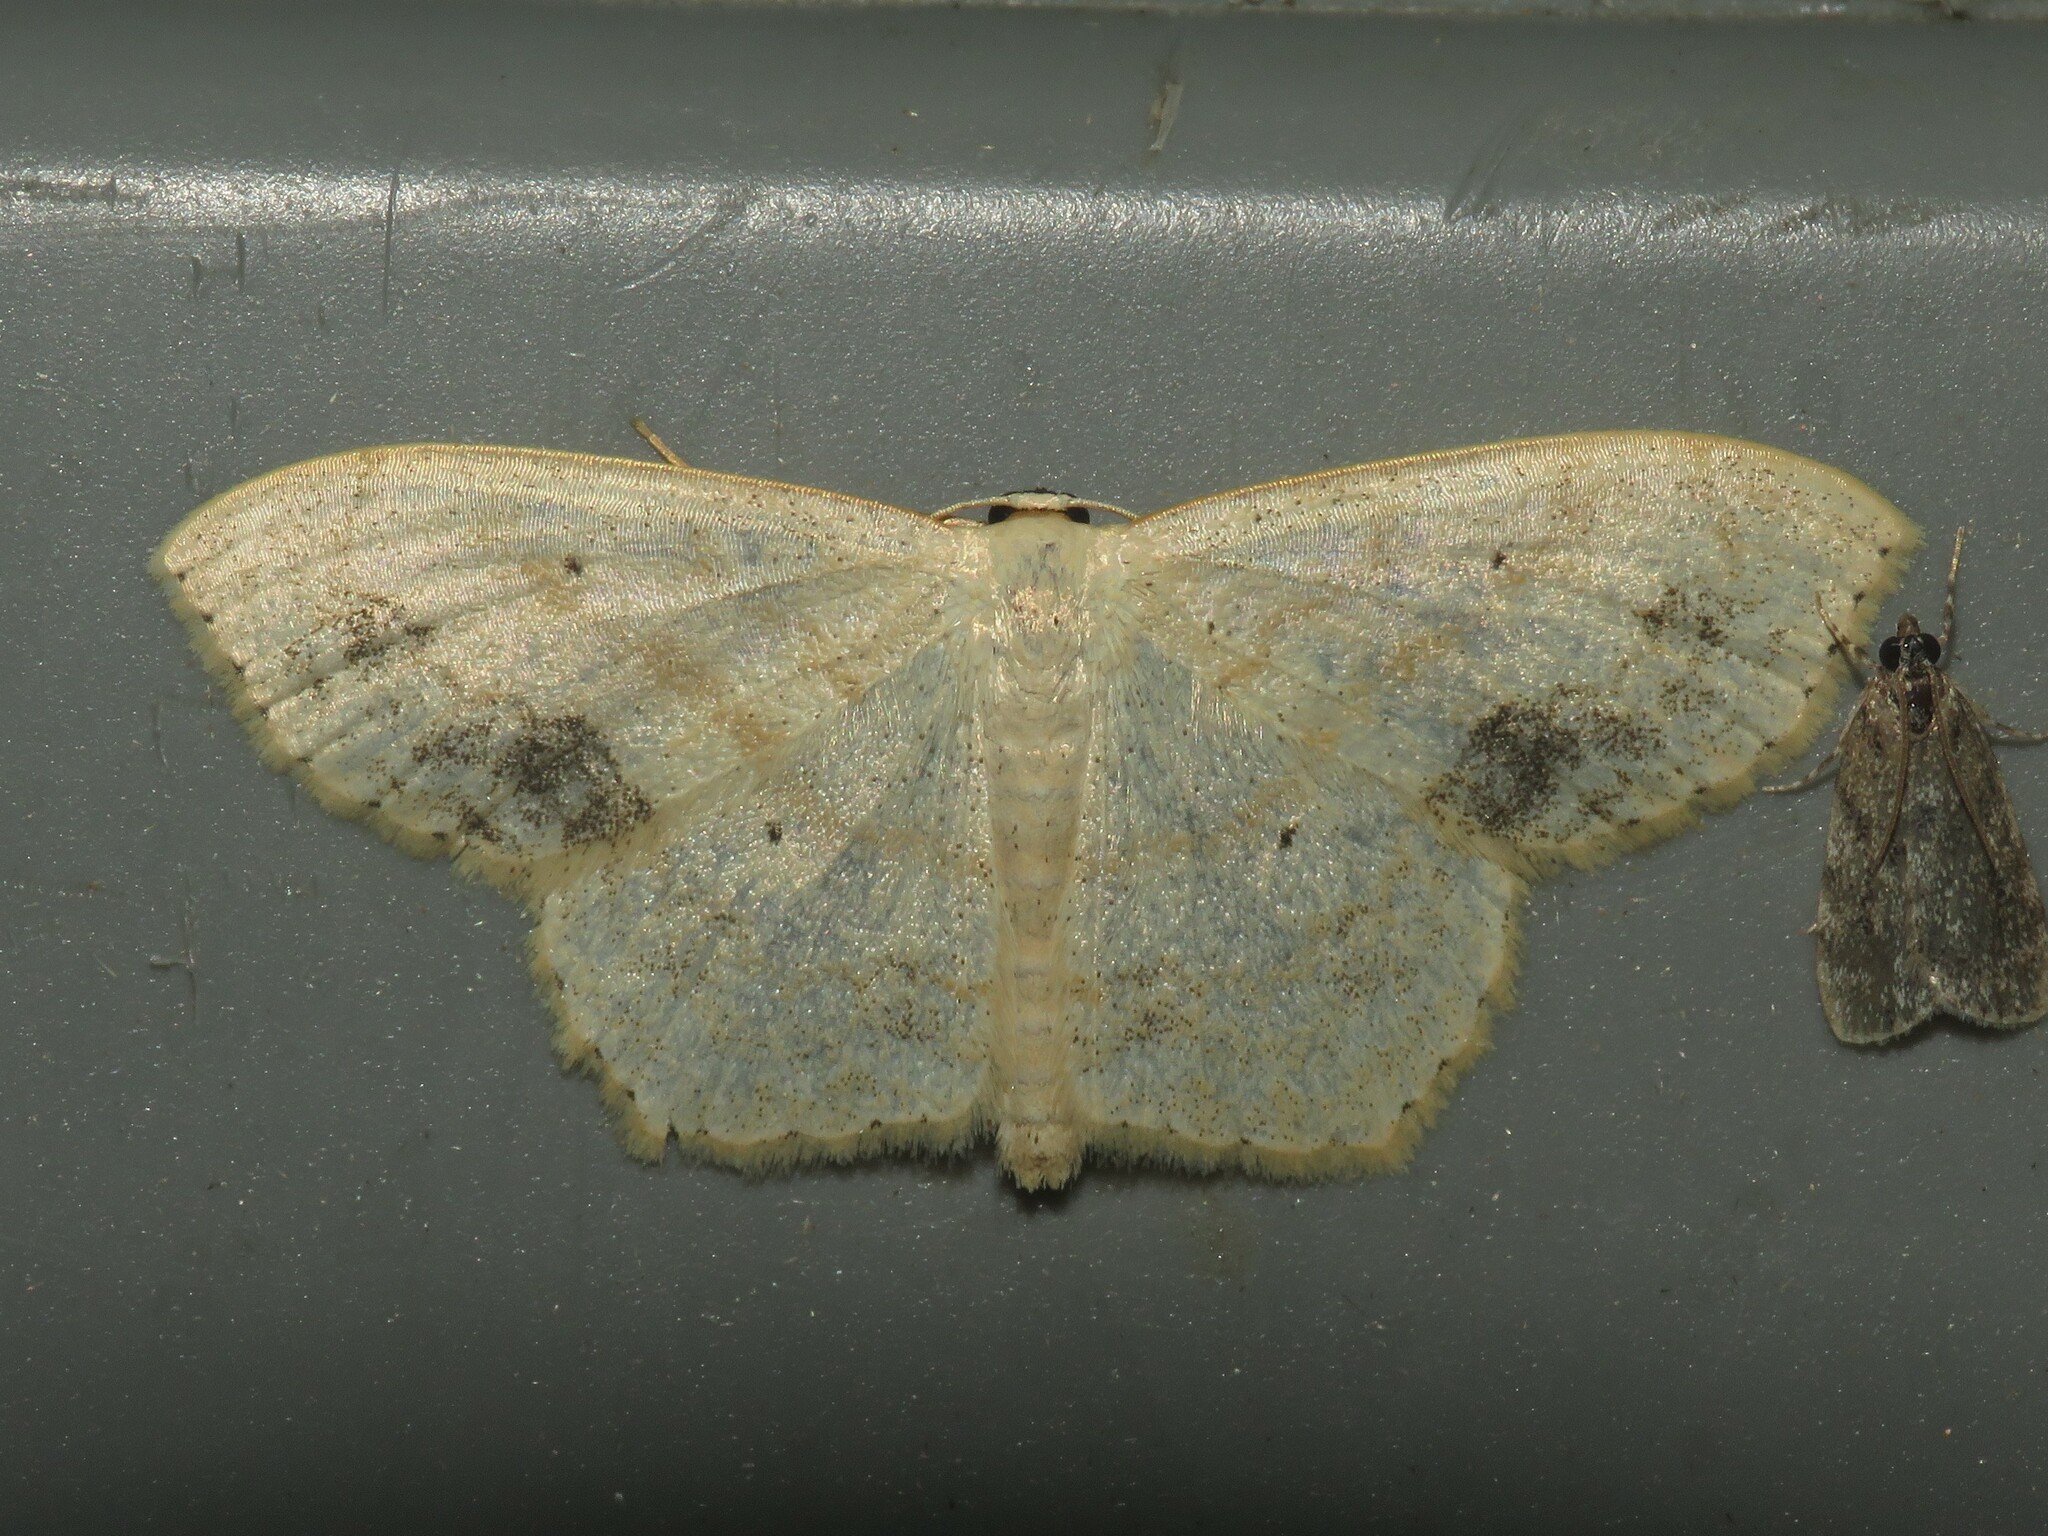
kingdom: Animalia
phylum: Arthropoda
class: Insecta
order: Lepidoptera
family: Geometridae
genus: Scopula
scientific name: Scopula limboundata
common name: Large lace border
